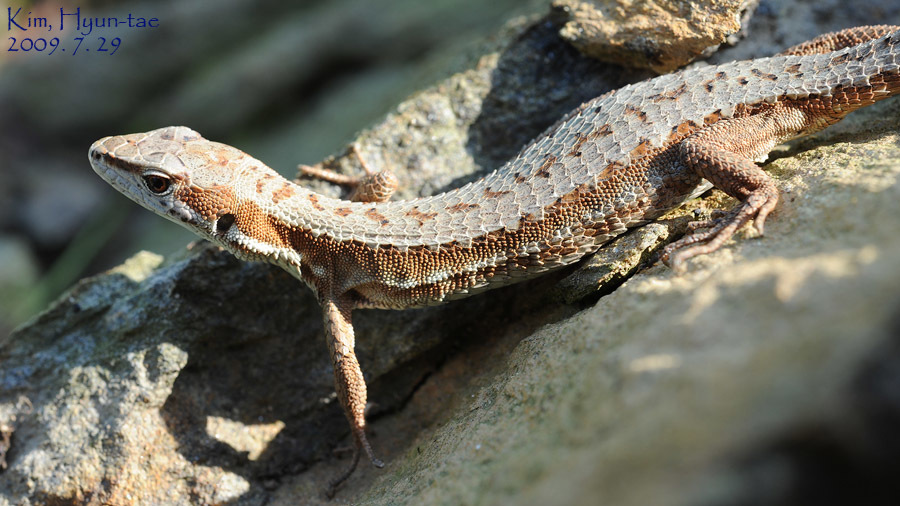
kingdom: Animalia
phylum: Chordata
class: Squamata
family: Lacertidae
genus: Takydromus
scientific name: Takydromus amurensis
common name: Amur grass lizard
